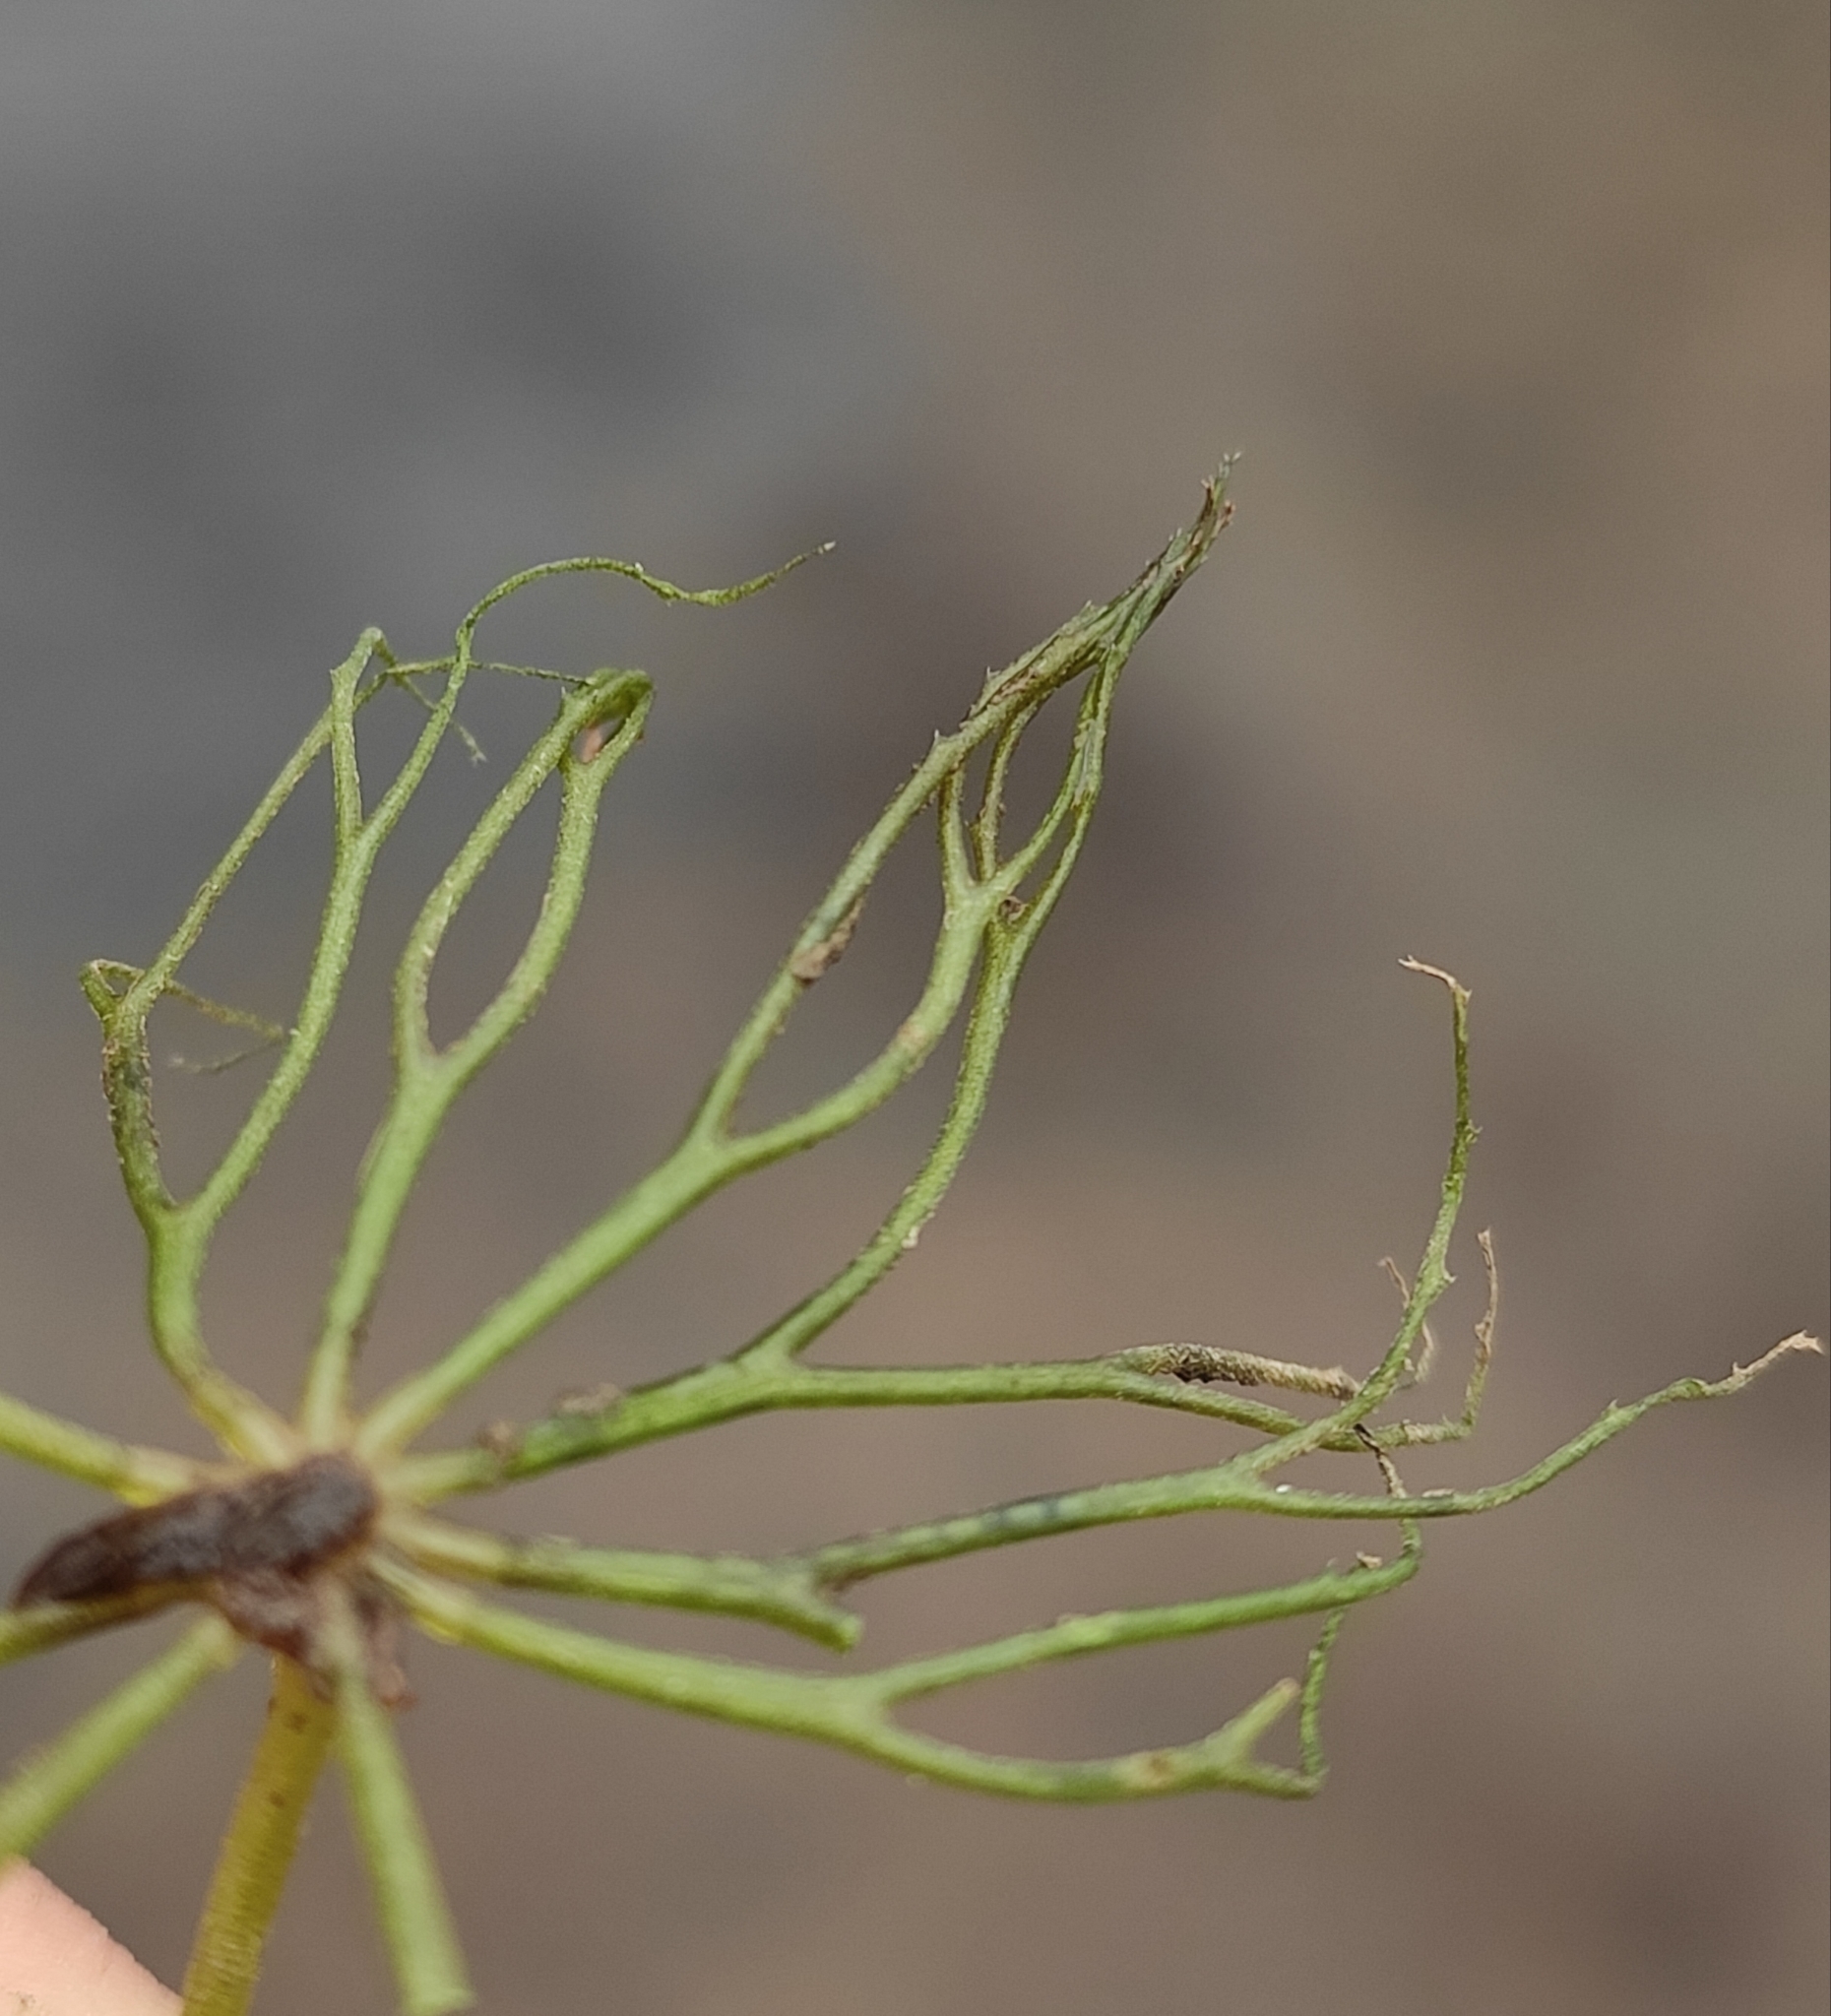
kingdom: Plantae
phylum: Tracheophyta
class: Magnoliopsida
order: Ceratophyllales
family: Ceratophyllaceae
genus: Ceratophyllum
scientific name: Ceratophyllum demersum
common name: Rigid hornwort
